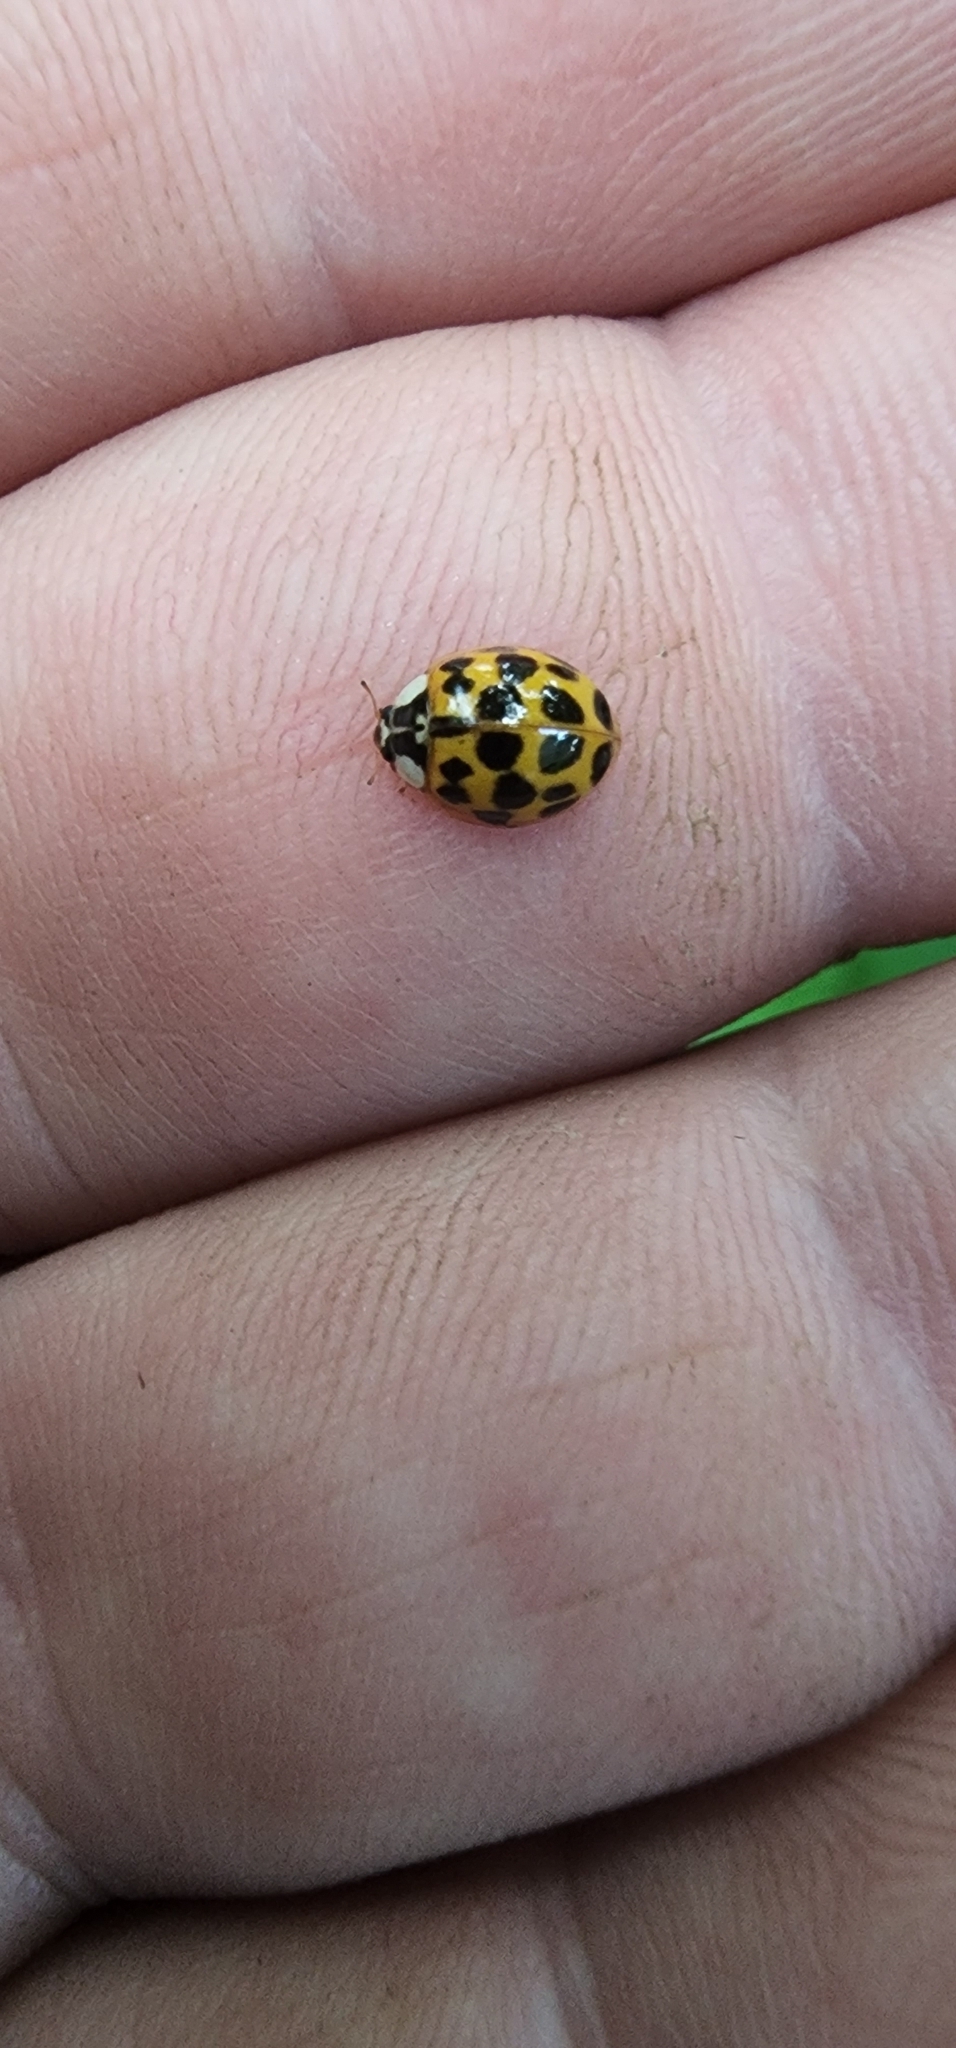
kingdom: Animalia
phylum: Arthropoda
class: Insecta
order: Coleoptera
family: Coccinellidae
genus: Harmonia
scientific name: Harmonia axyridis
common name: Harlequin ladybird
